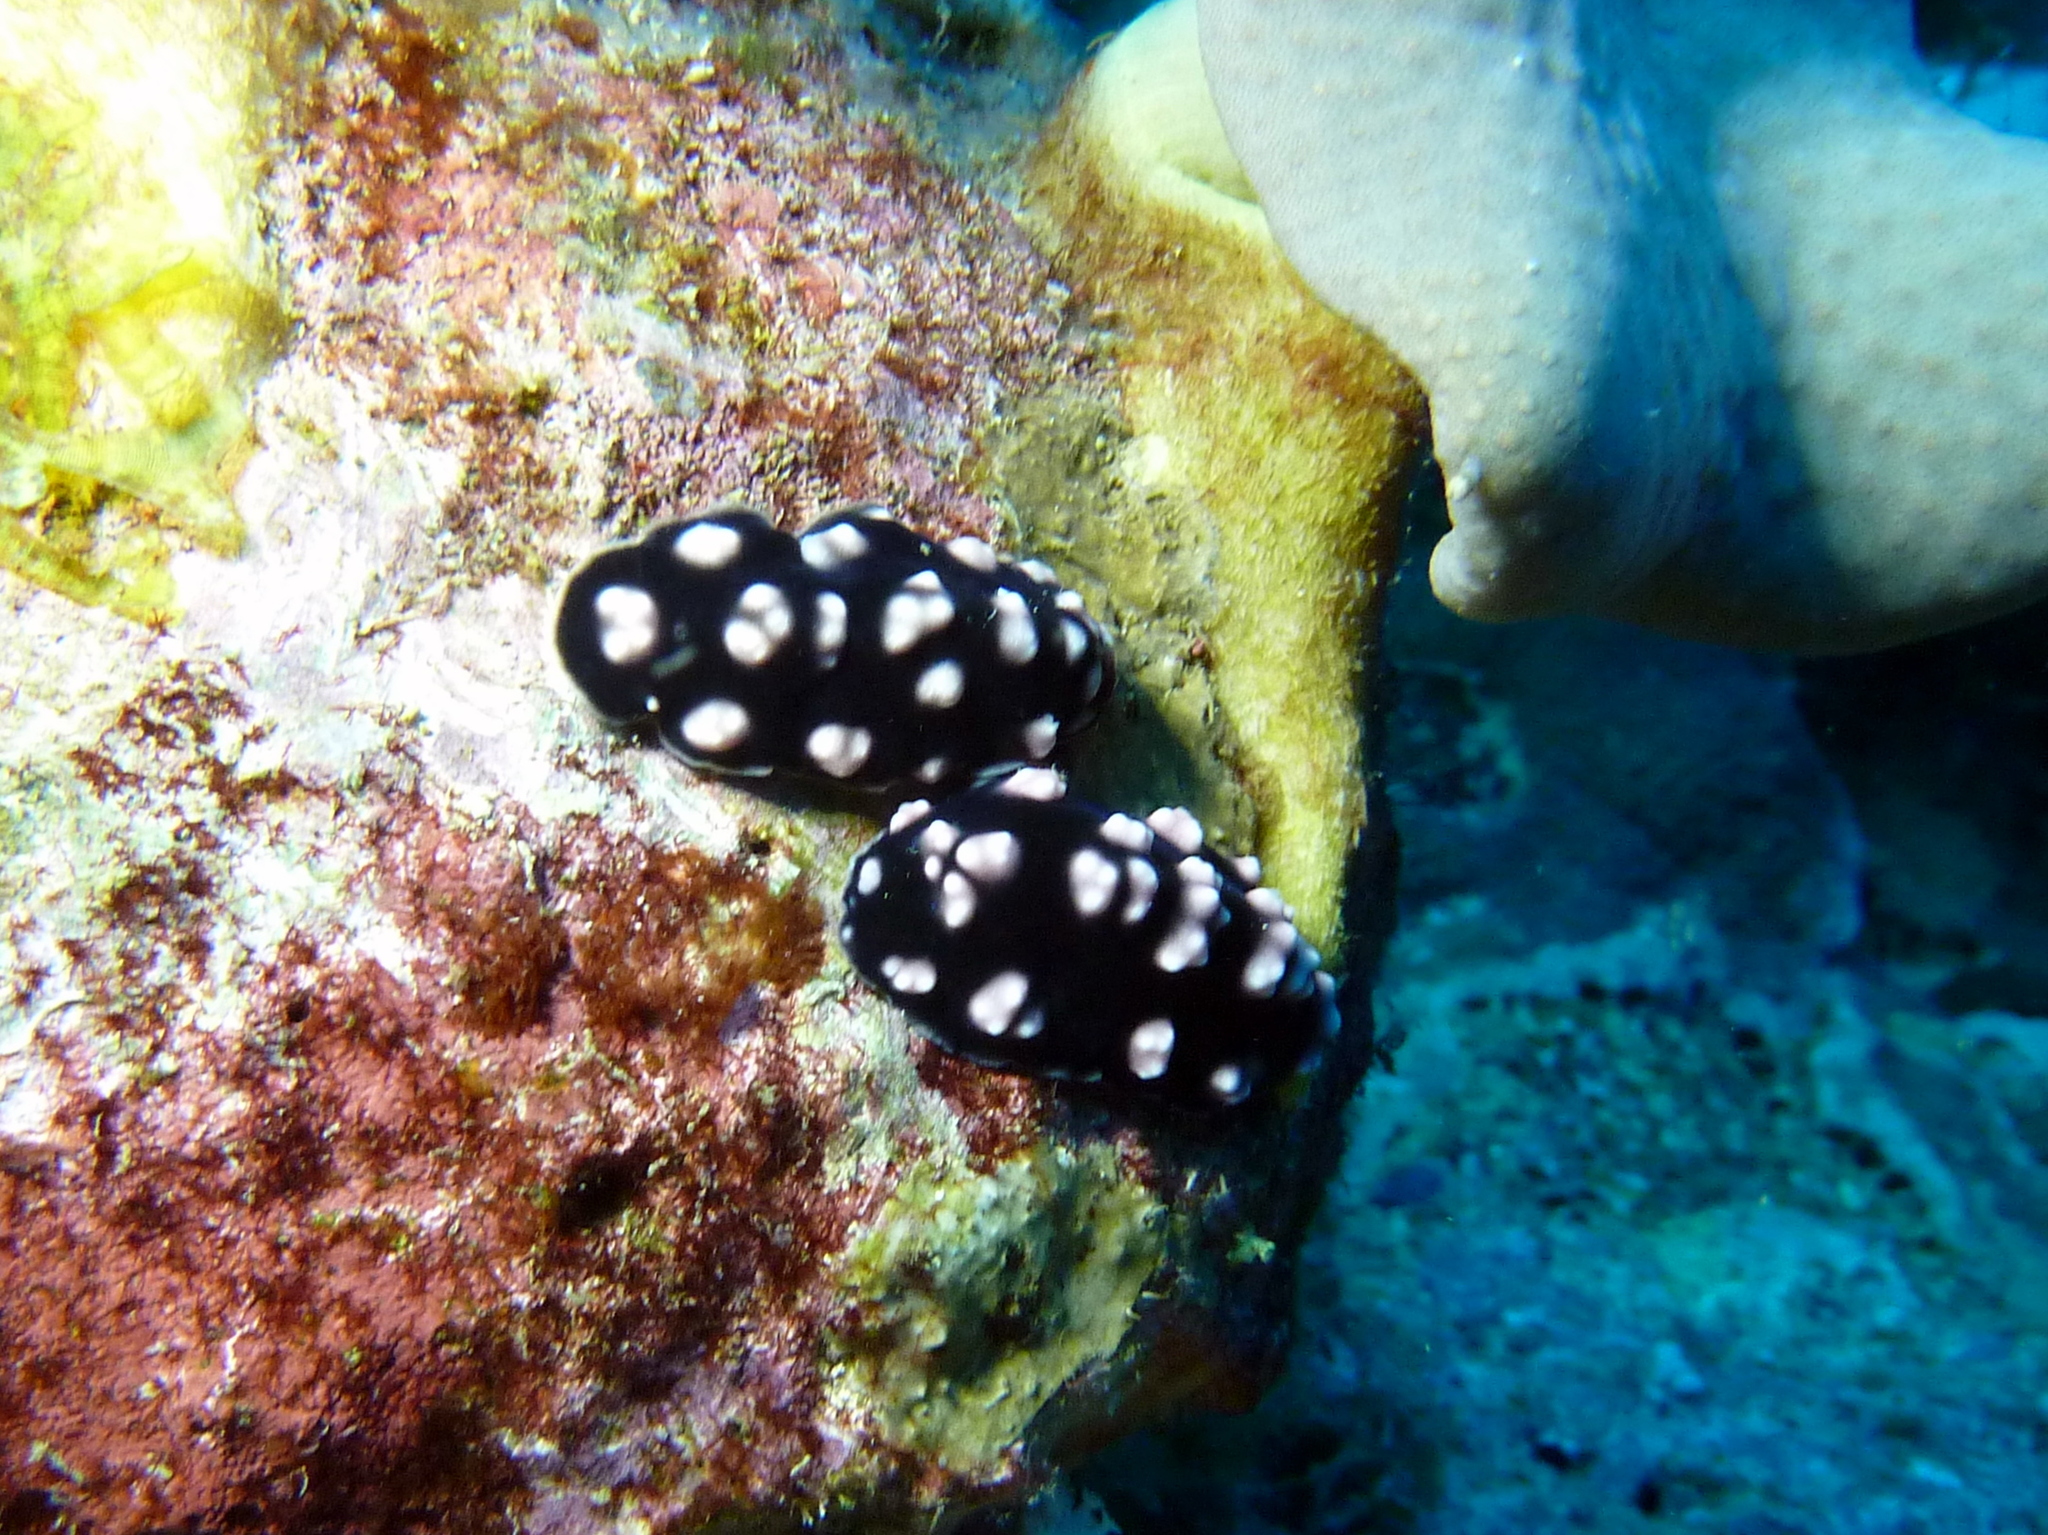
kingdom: Animalia
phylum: Mollusca
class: Gastropoda
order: Nudibranchia
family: Phyllidiidae
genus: Phyllidiella
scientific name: Phyllidiella pustulosa
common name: Pustular phyllidia
